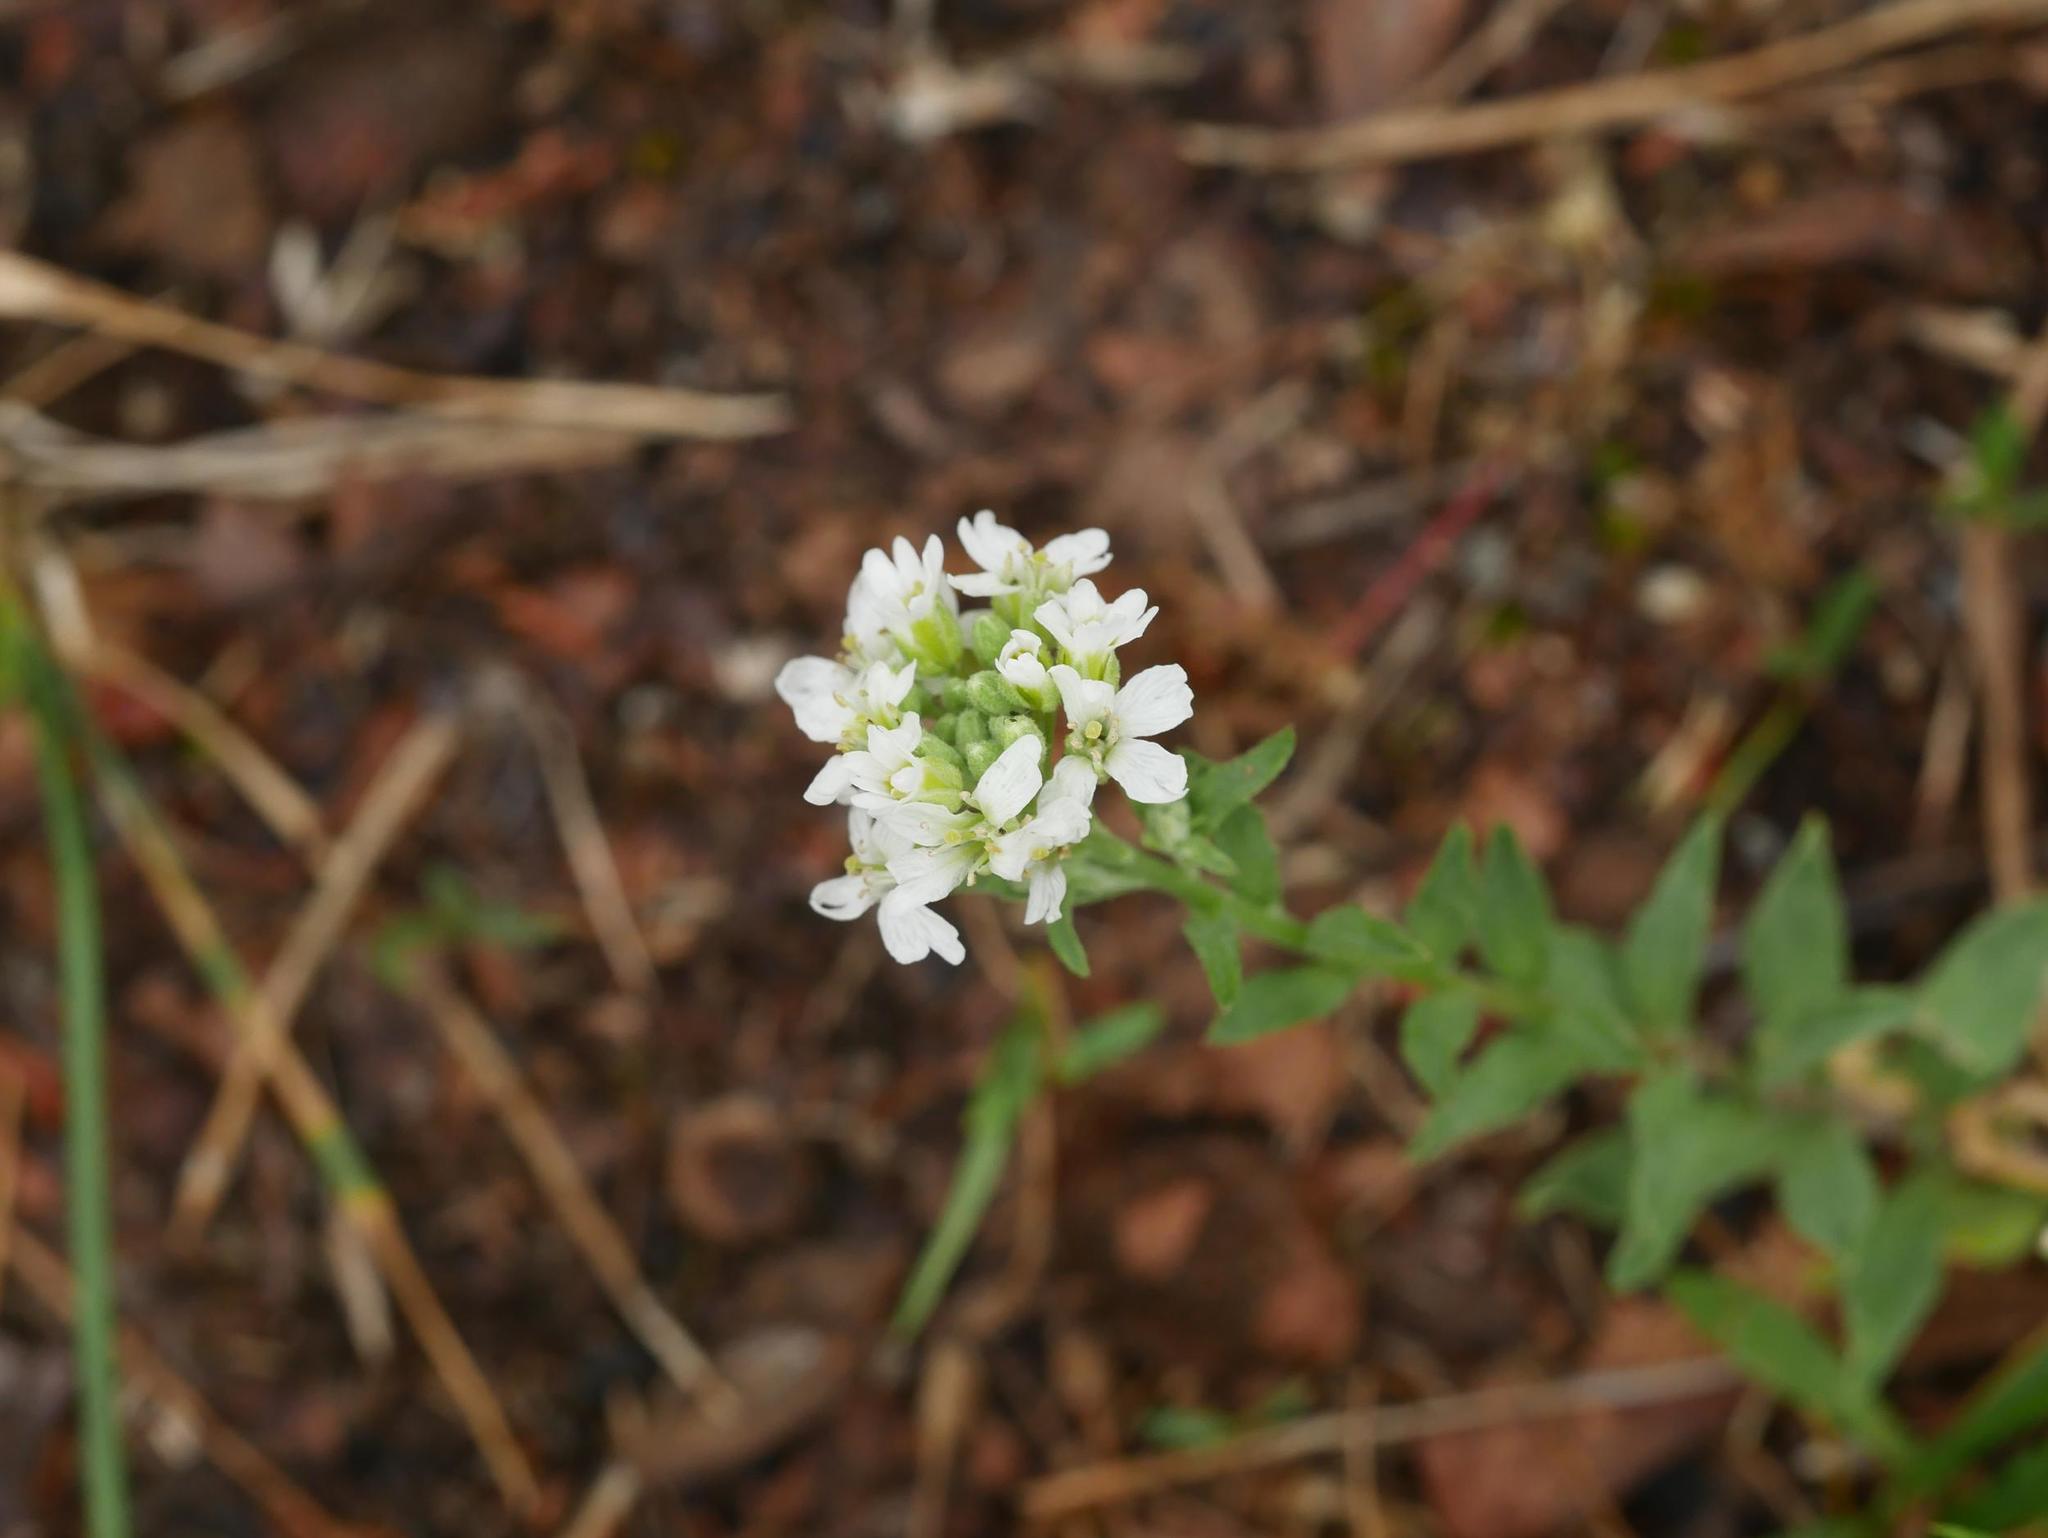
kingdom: Plantae
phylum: Tracheophyta
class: Magnoliopsida
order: Brassicales
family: Brassicaceae
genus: Berteroa
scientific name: Berteroa incana
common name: Hoary alison
